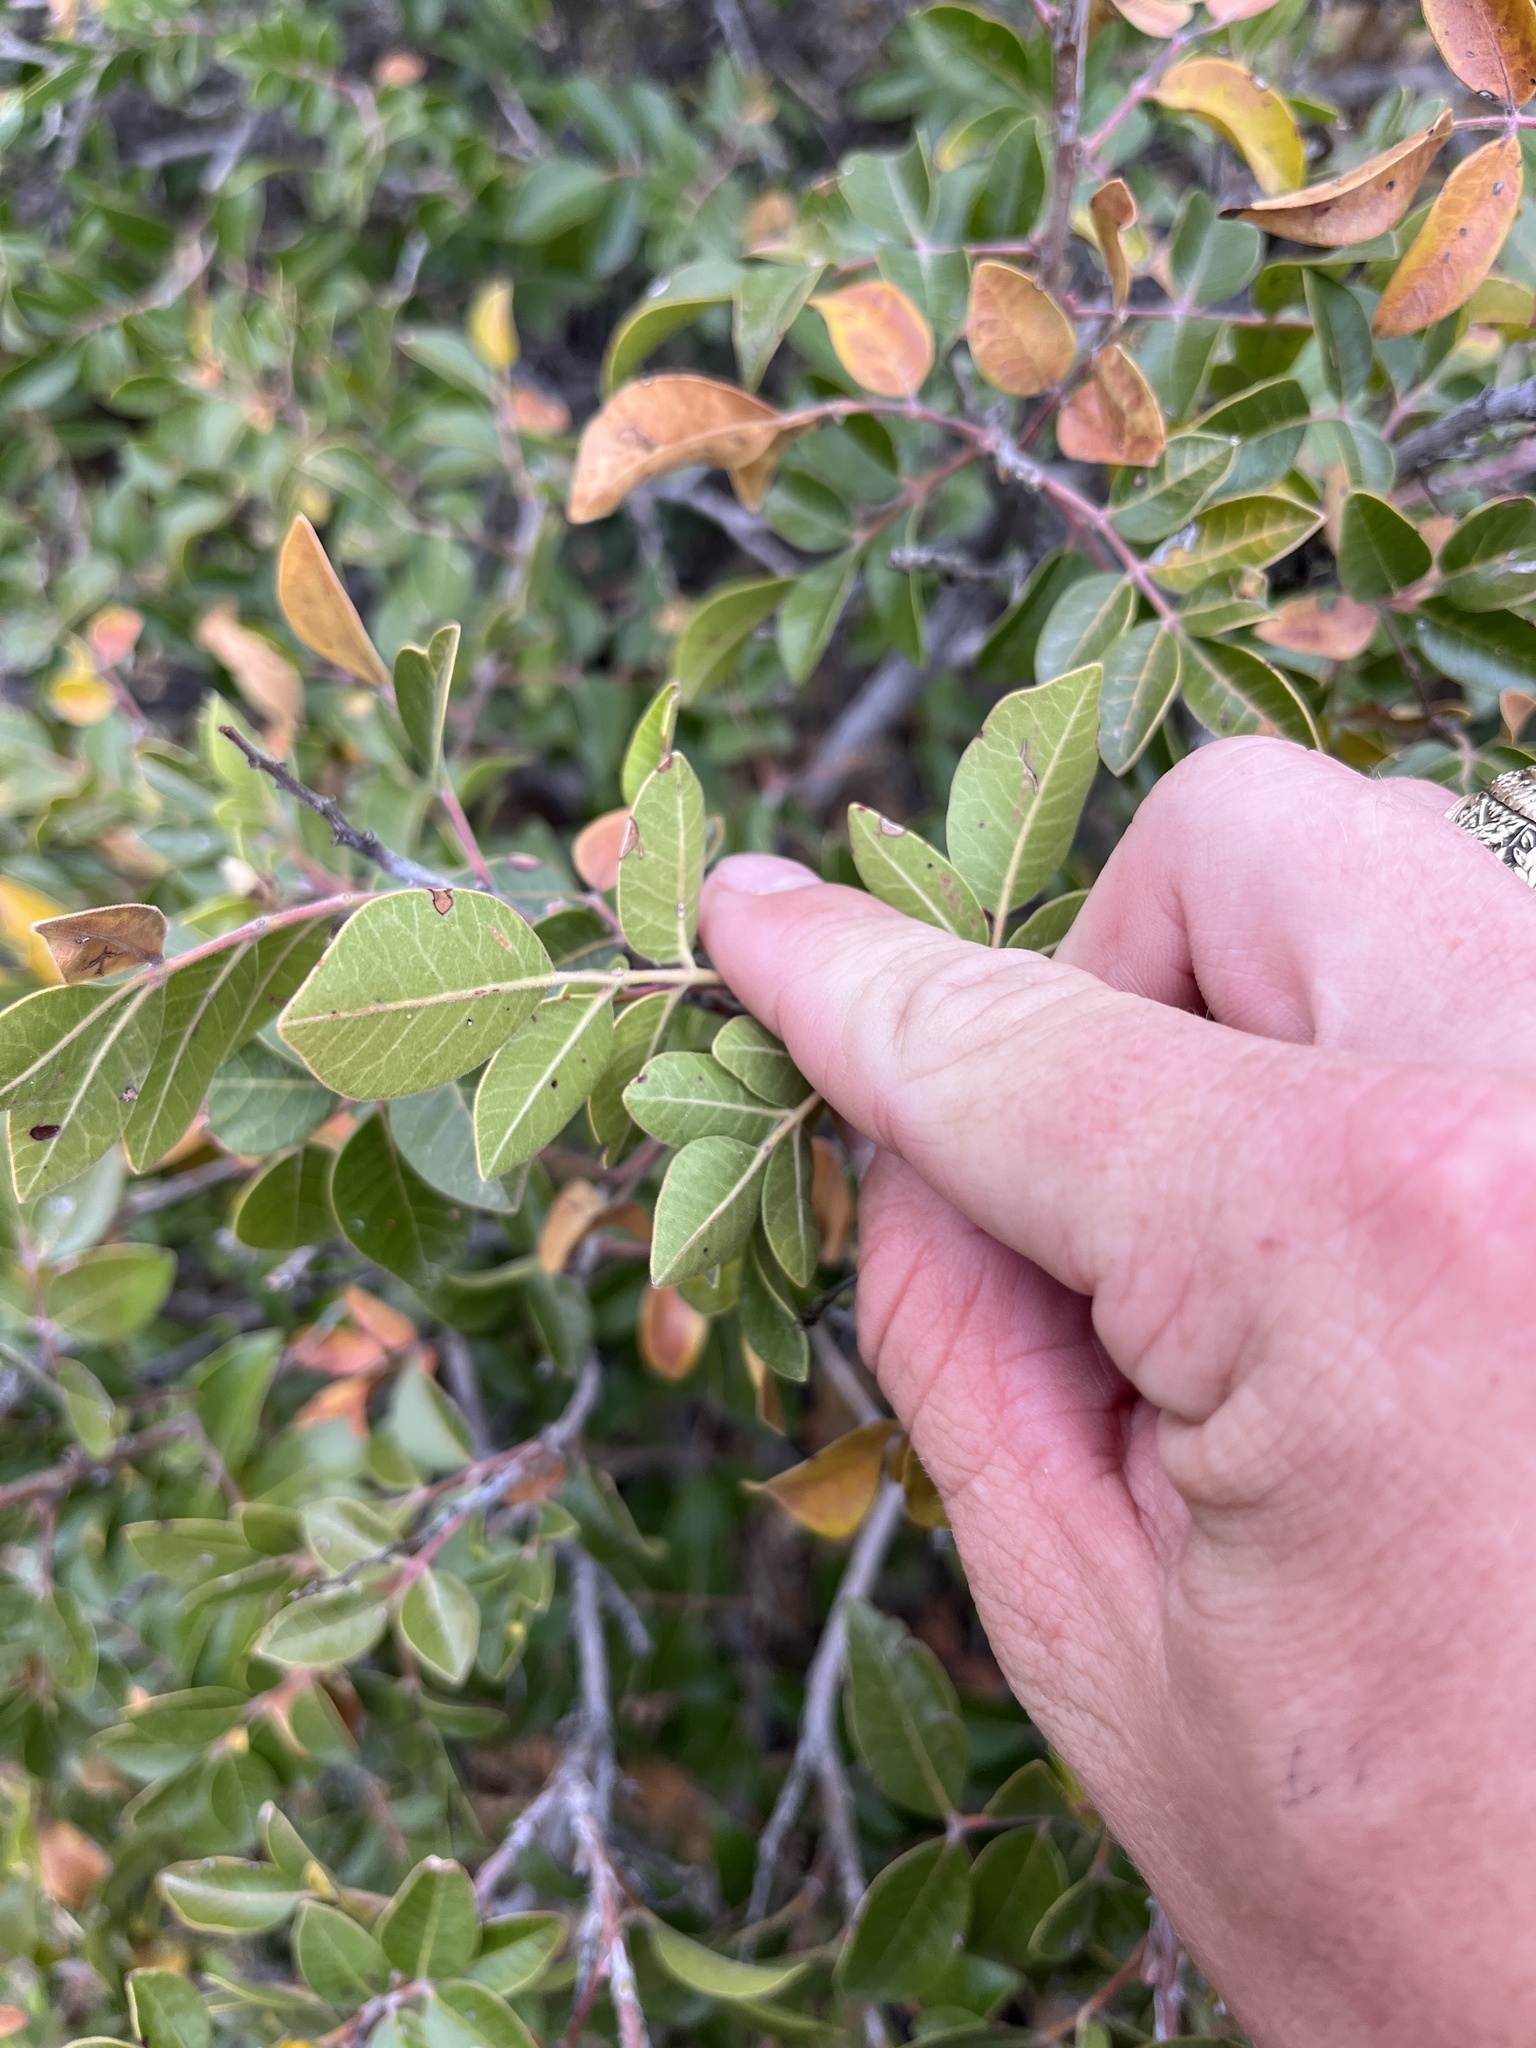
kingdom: Plantae
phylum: Tracheophyta
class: Magnoliopsida
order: Sapindales
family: Anacardiaceae
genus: Rhus
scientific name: Rhus virens
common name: Evergreen sumac
